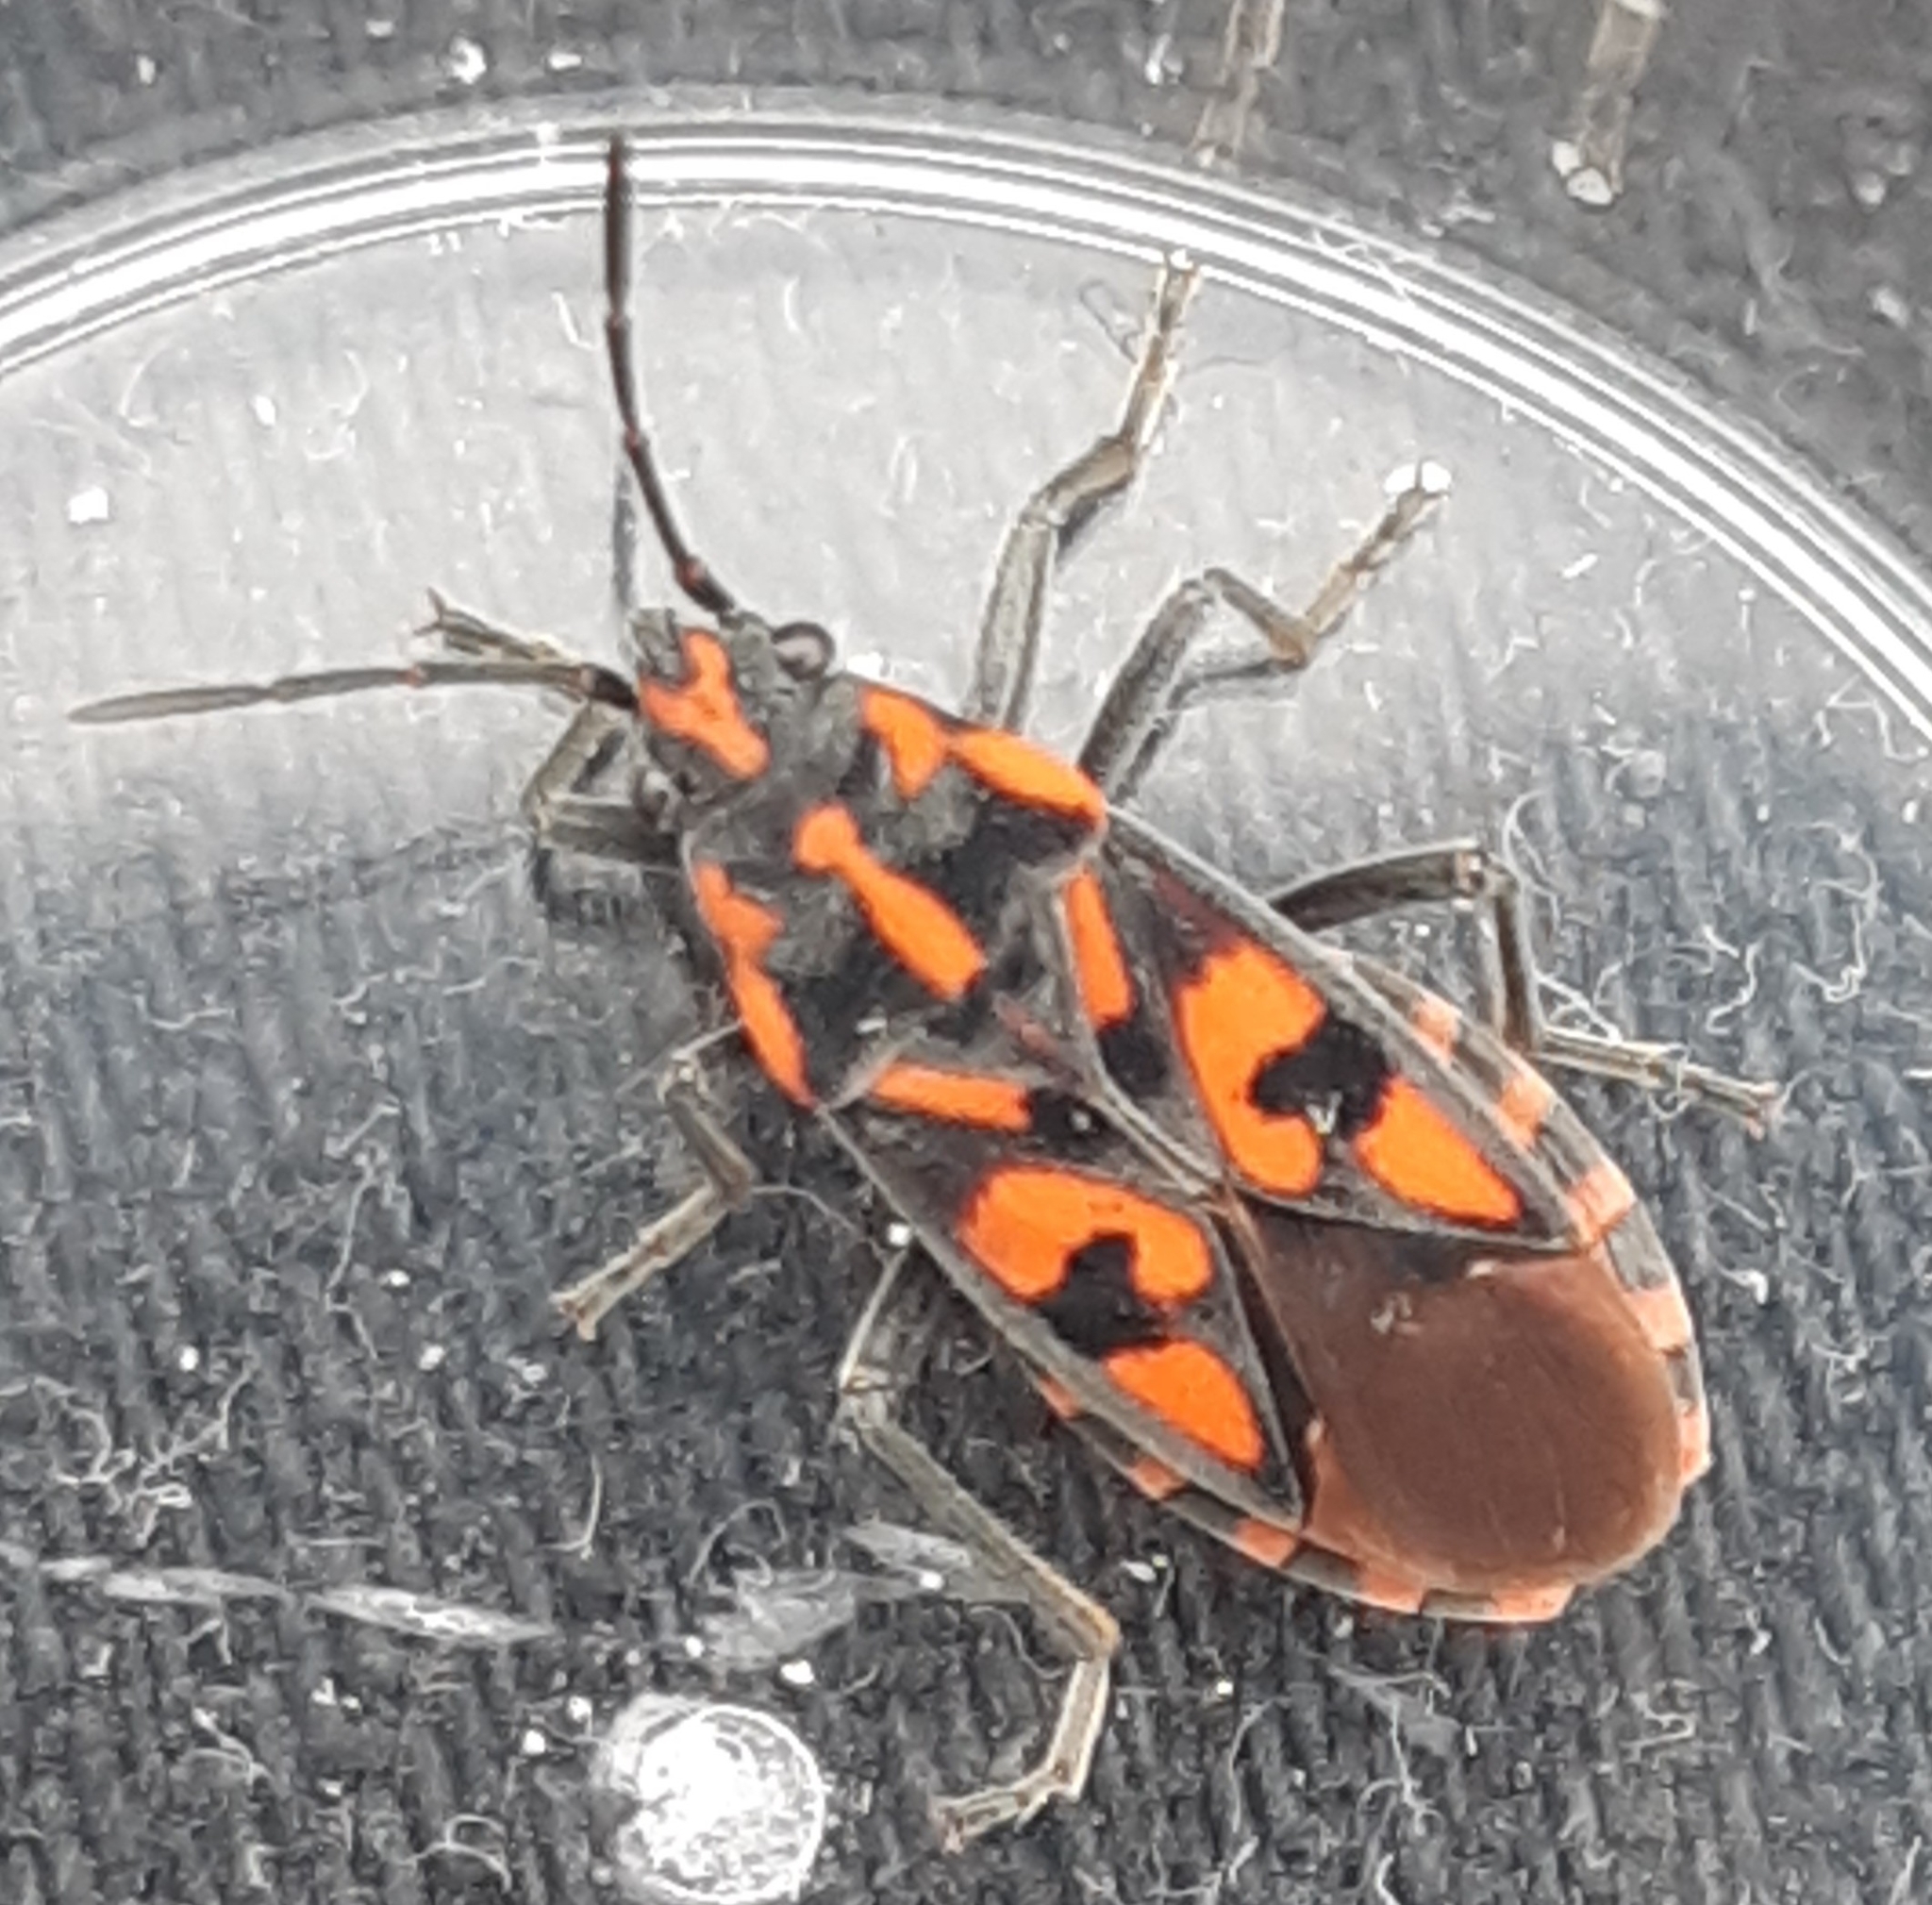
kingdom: Animalia
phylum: Arthropoda
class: Insecta
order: Hemiptera
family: Lygaeidae
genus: Spilostethus
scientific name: Spilostethus saxatilis
